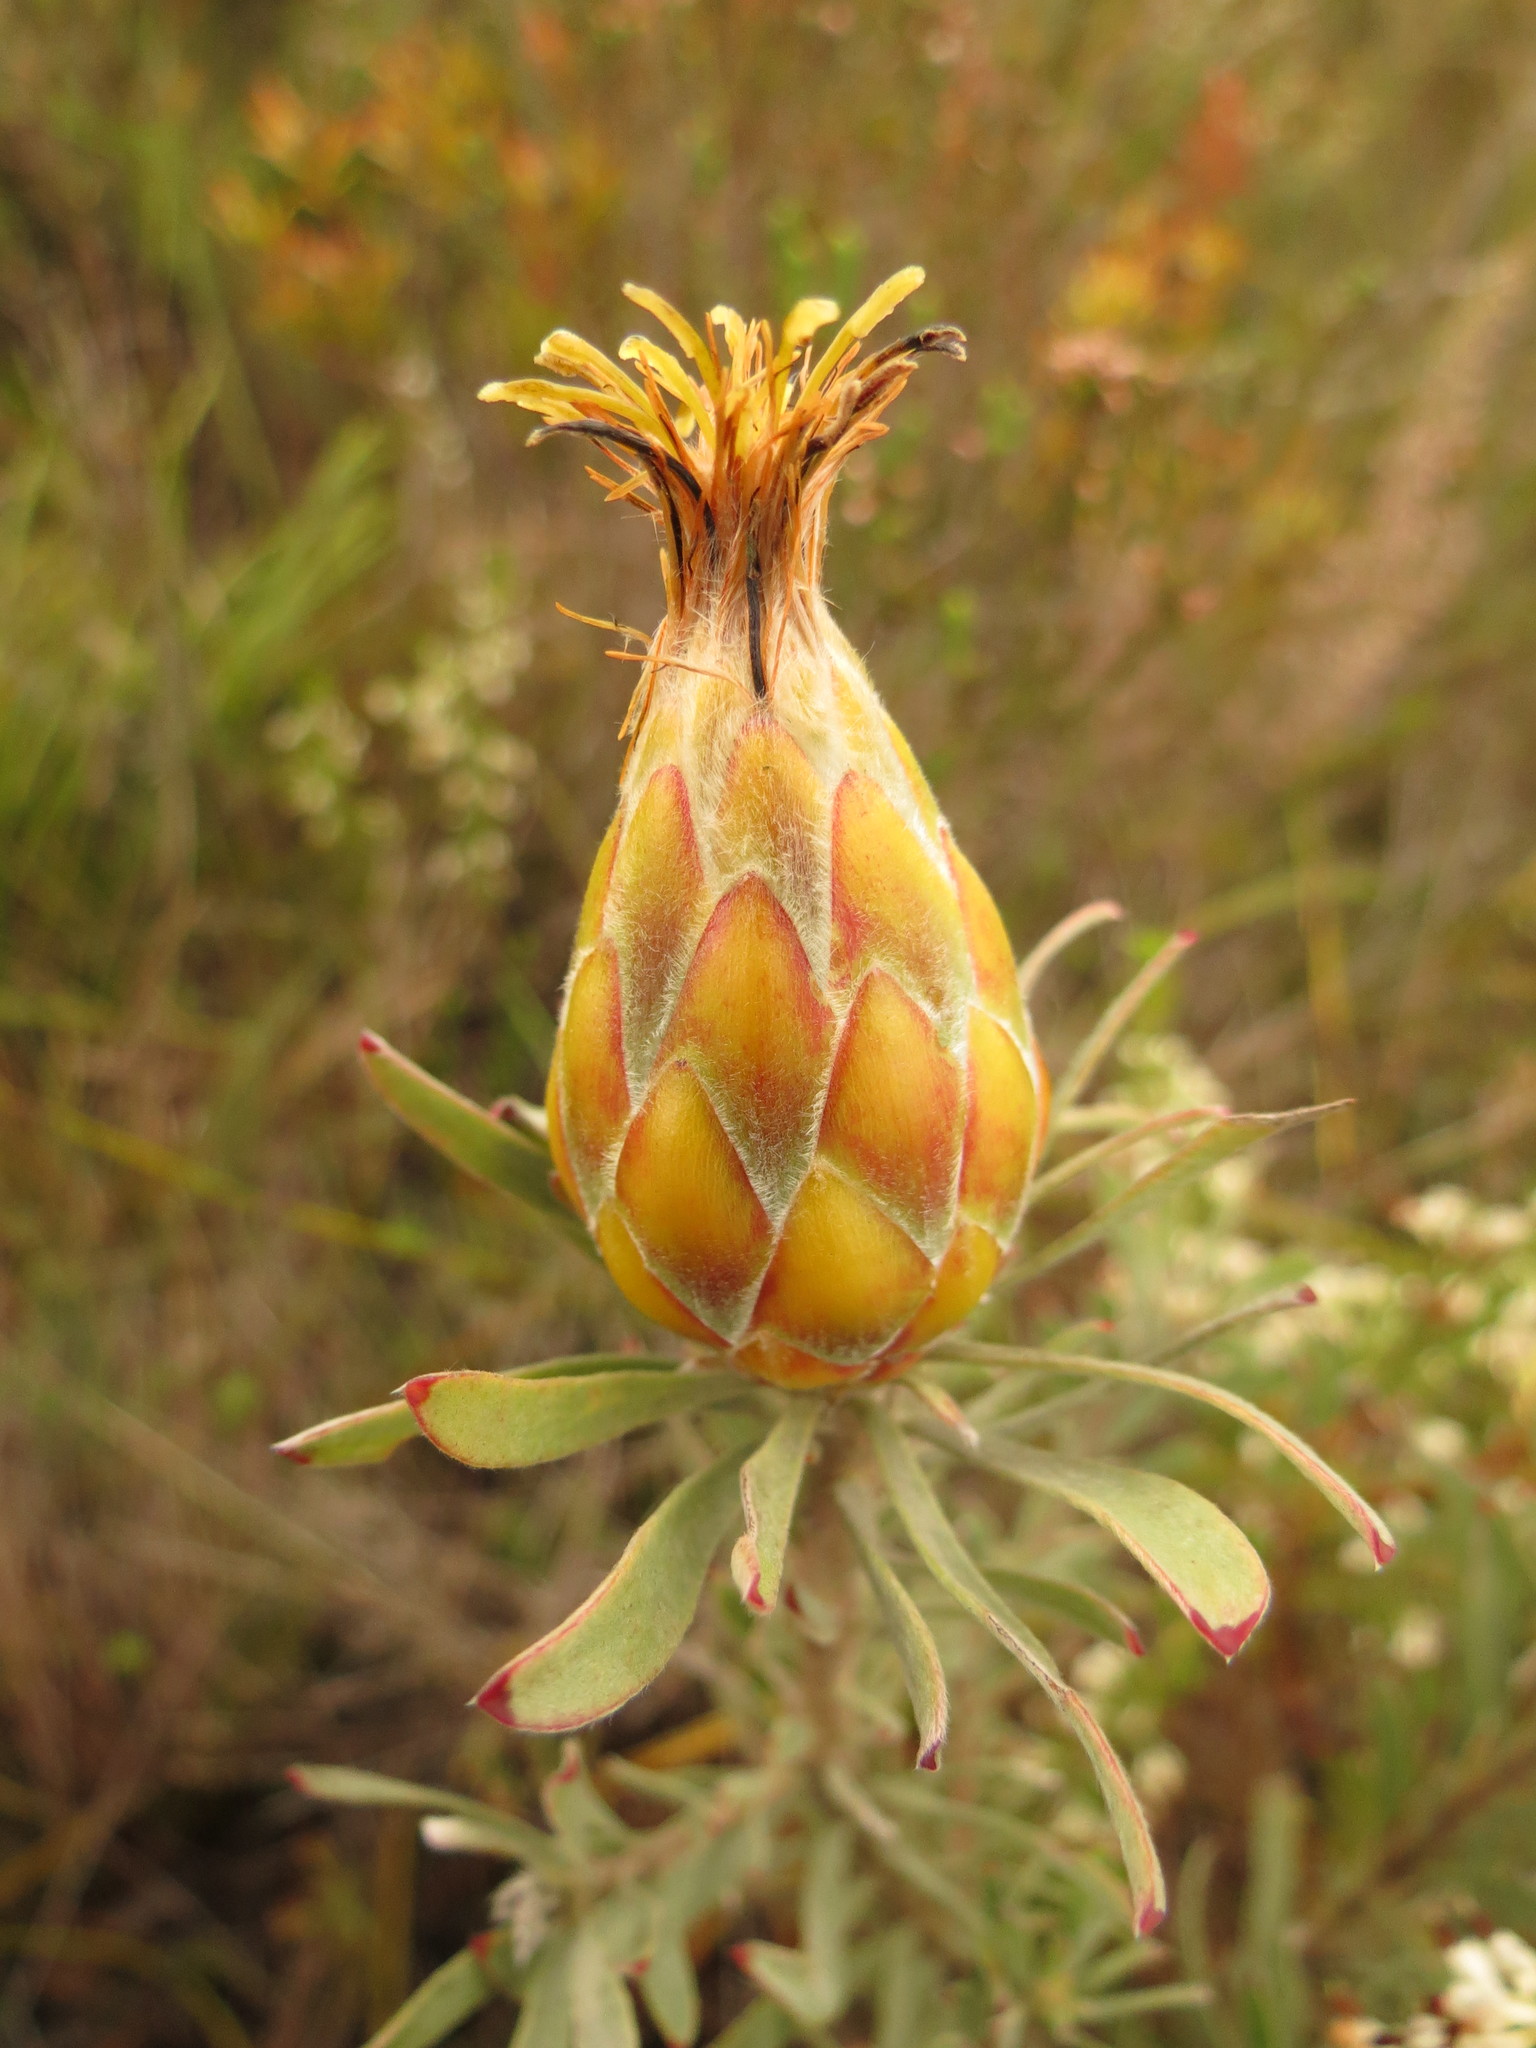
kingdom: Plantae
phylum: Tracheophyta
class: Magnoliopsida
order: Proteales
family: Proteaceae
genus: Leucadendron
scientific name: Leucadendron rubrum
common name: Spinning top
